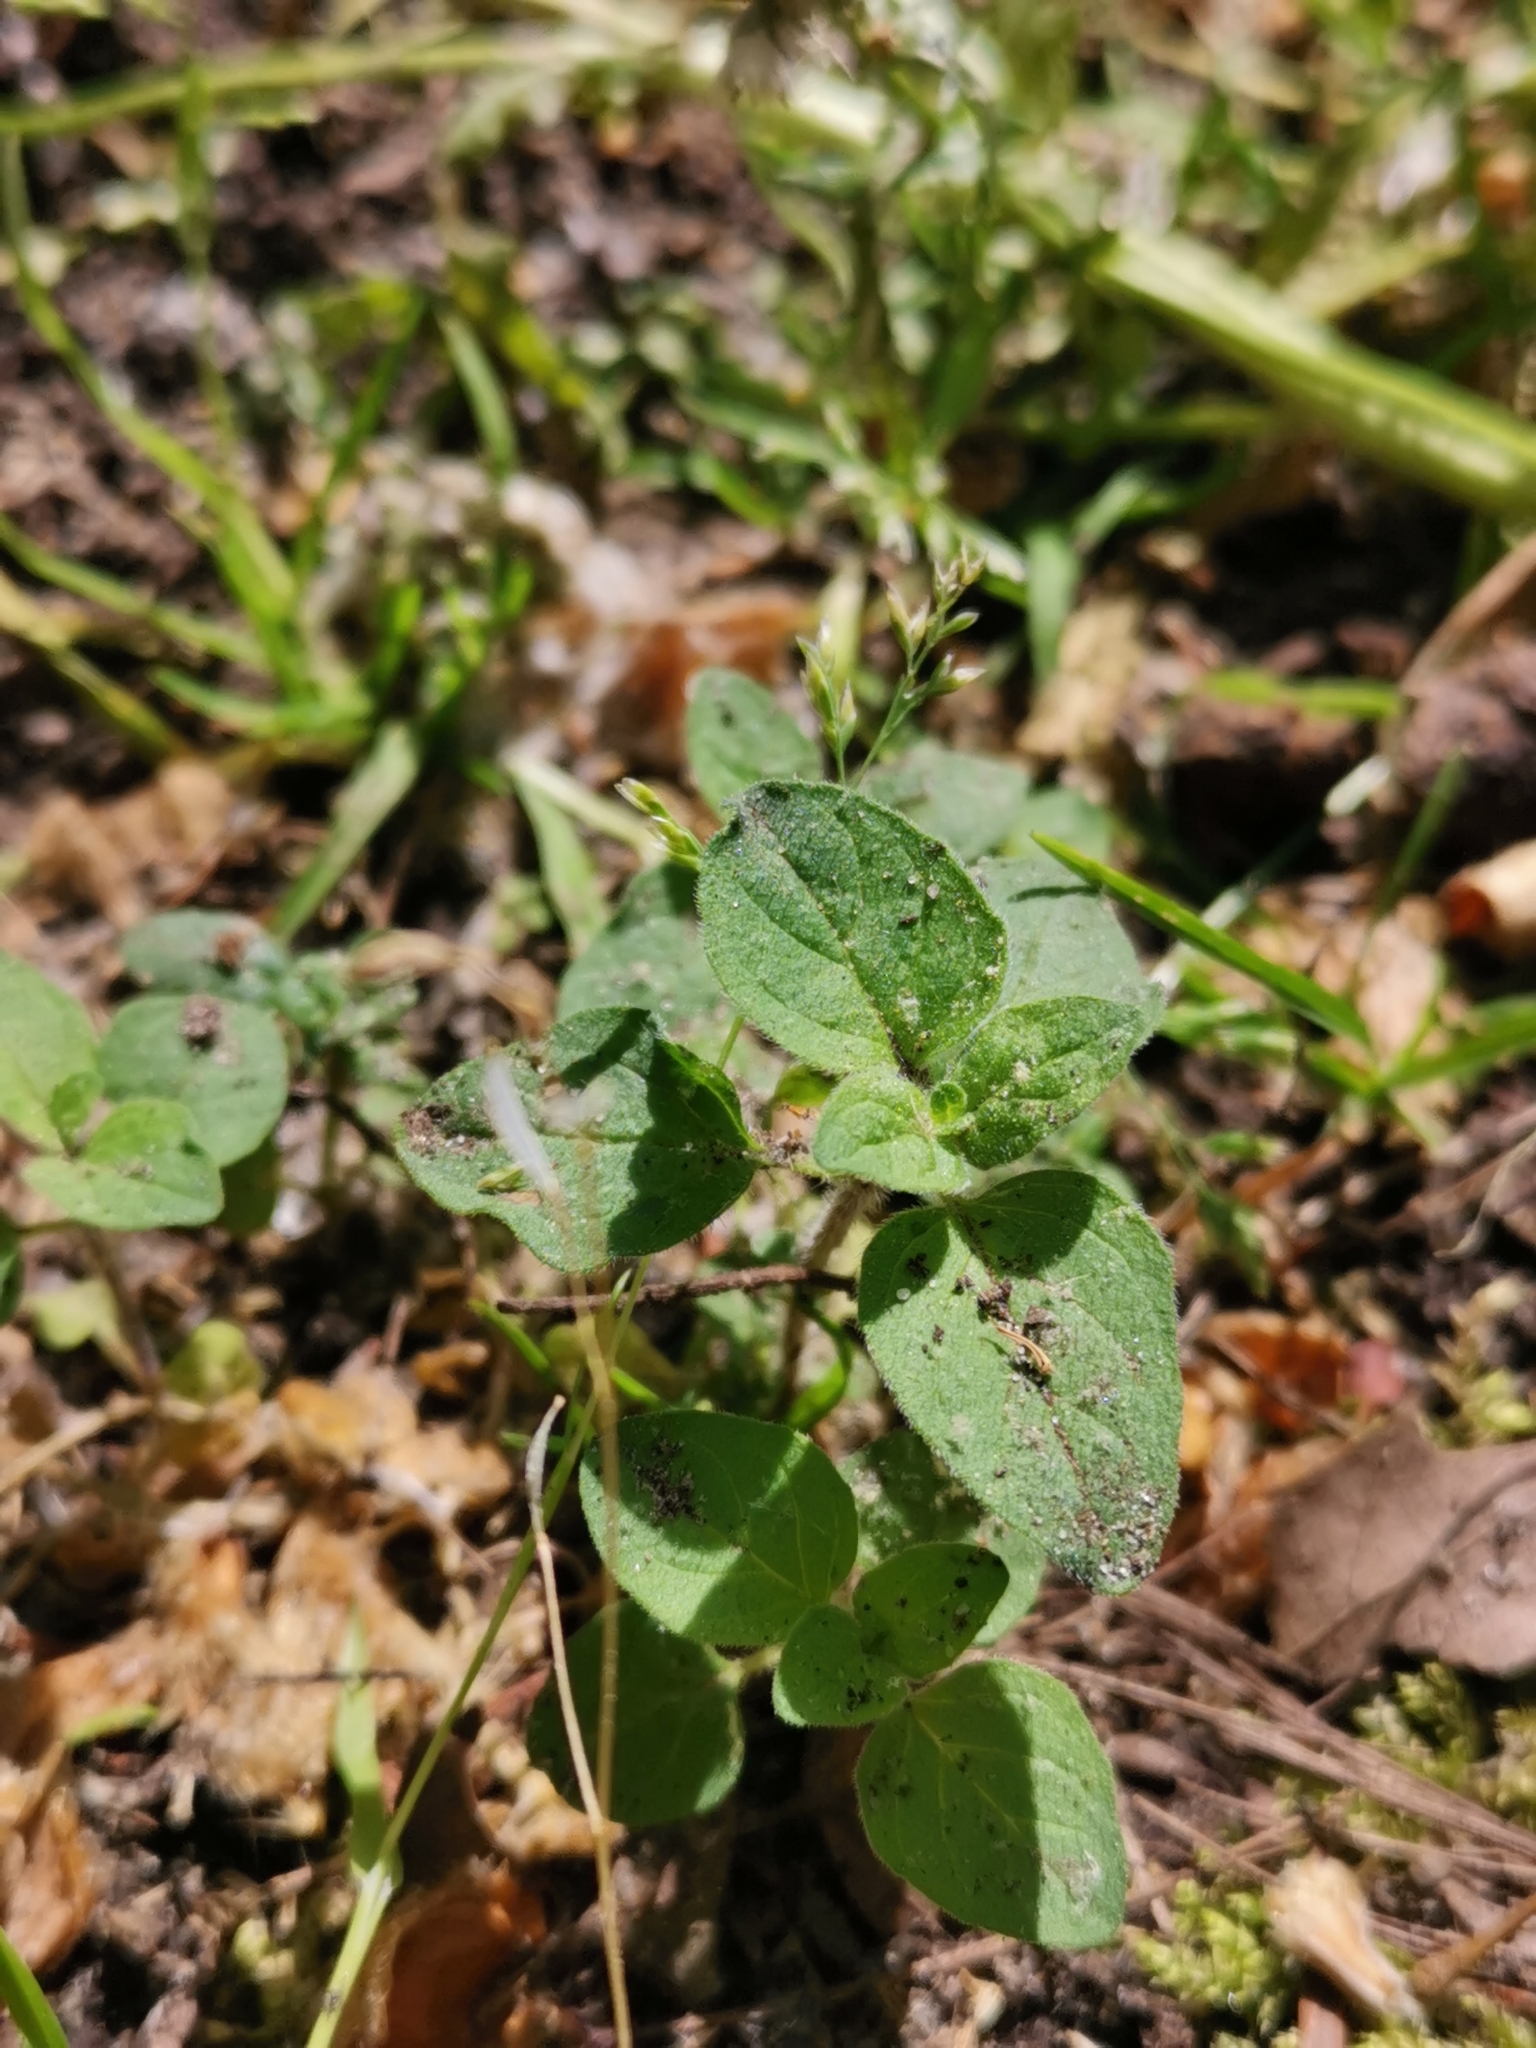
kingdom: Plantae
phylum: Tracheophyta
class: Magnoliopsida
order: Lamiales
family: Lamiaceae
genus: Origanum
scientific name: Origanum vulgare
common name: Wild marjoram
